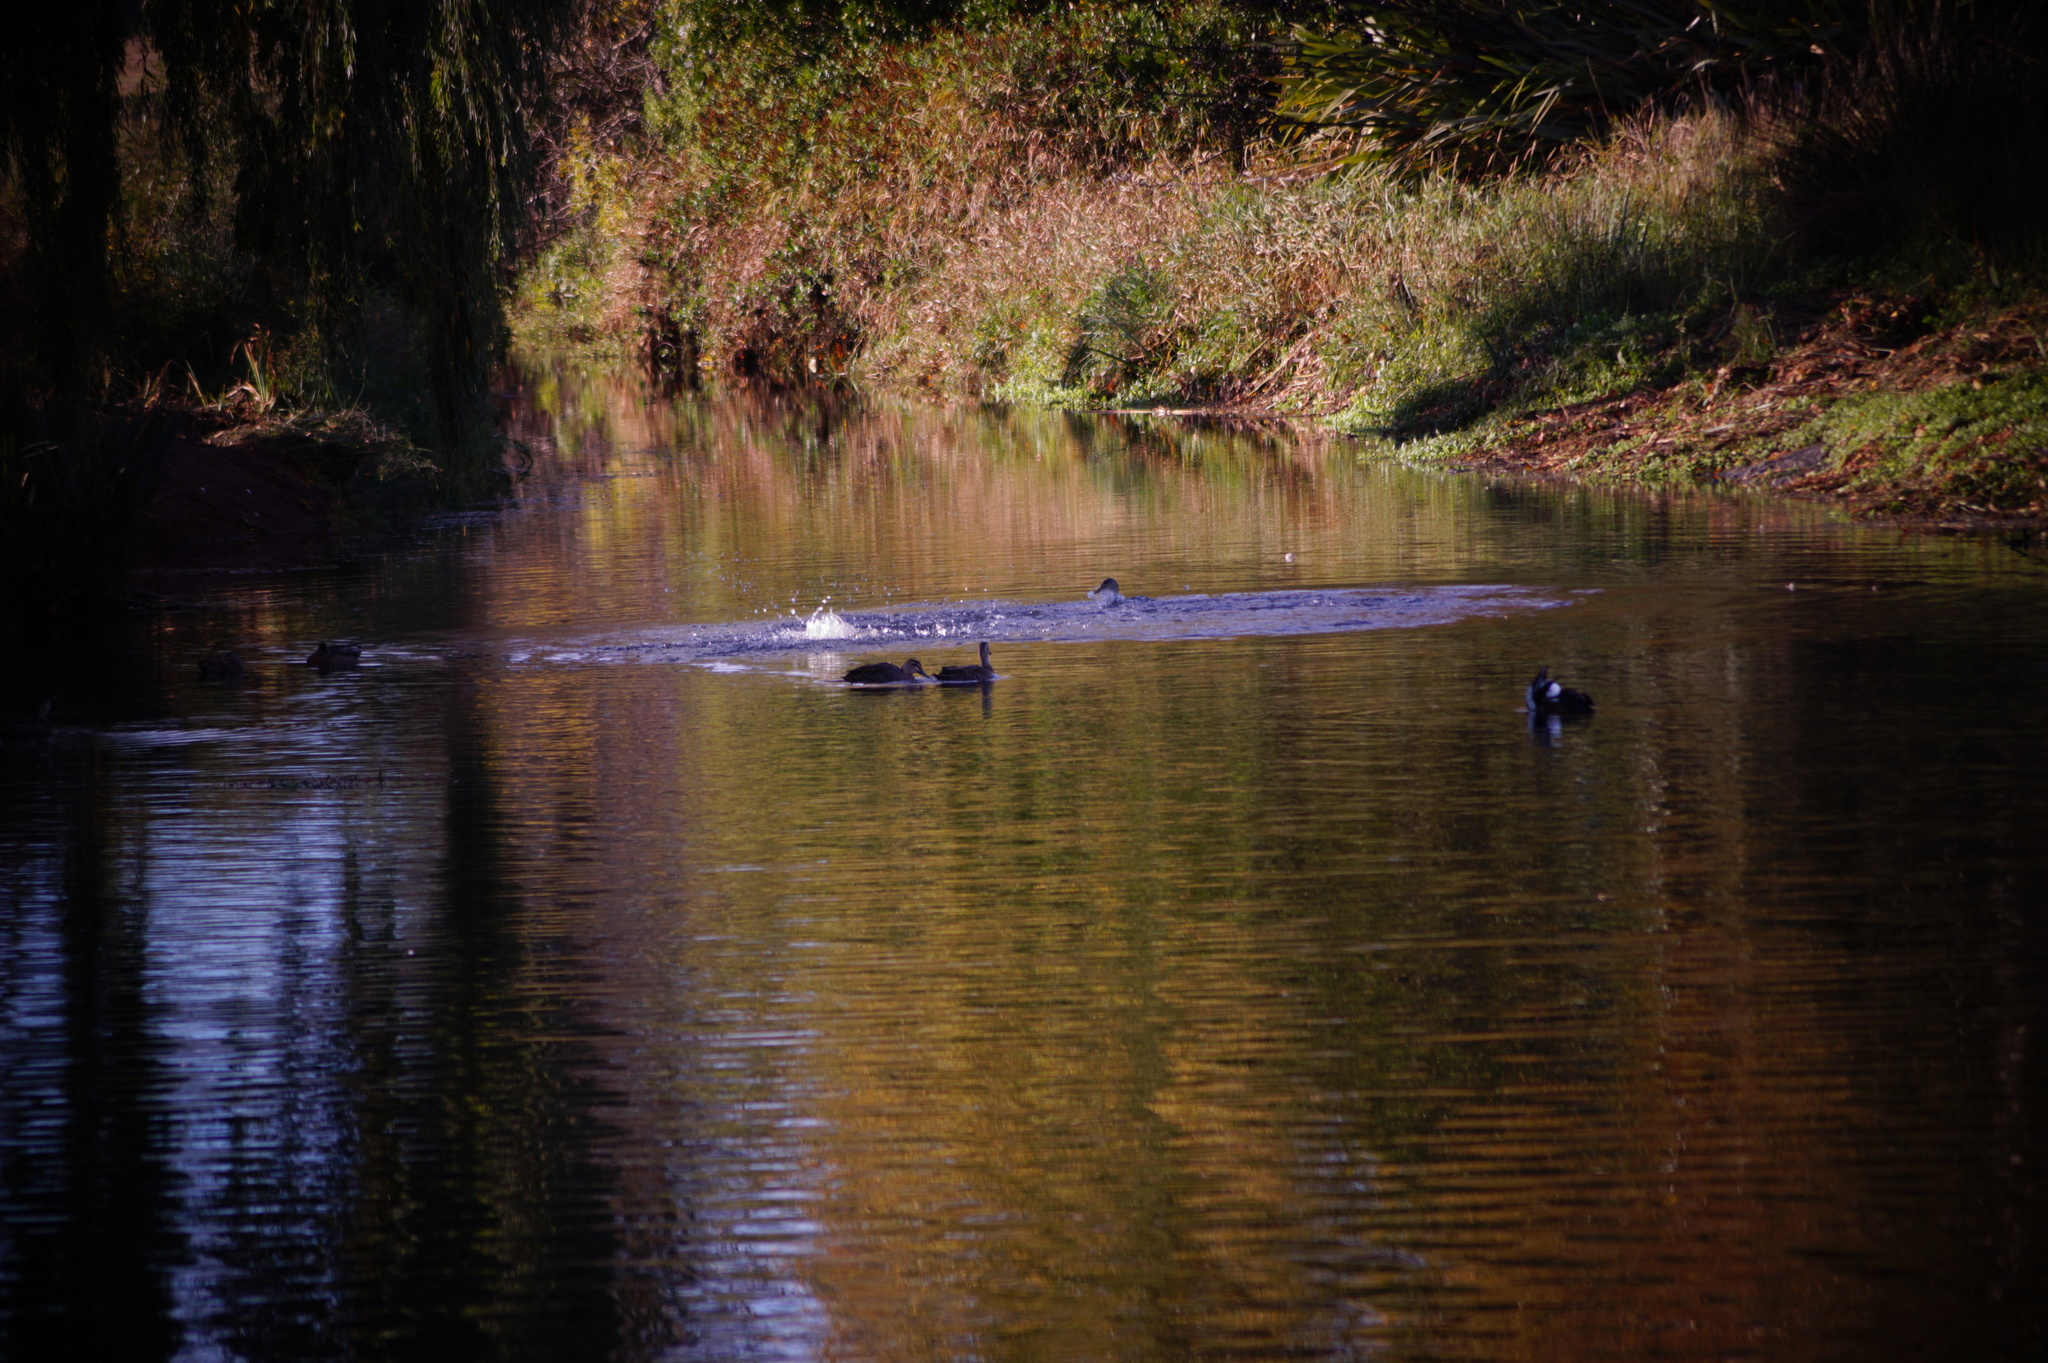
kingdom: Animalia
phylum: Chordata
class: Aves
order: Anseriformes
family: Anatidae
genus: Tadorna
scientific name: Tadorna variegata
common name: Paradise shelduck
